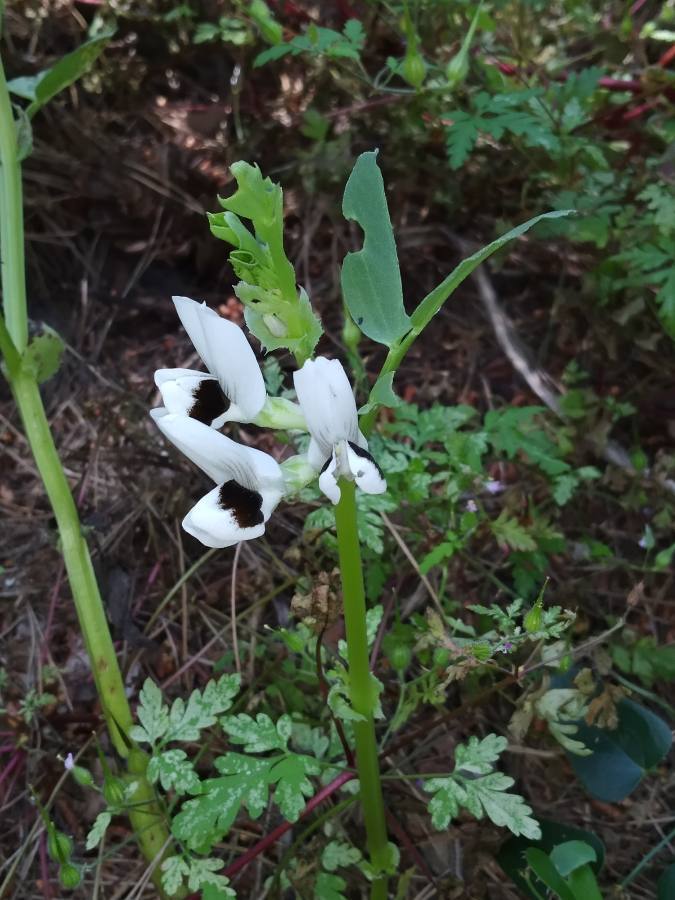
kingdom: Plantae
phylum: Tracheophyta
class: Magnoliopsida
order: Fabales
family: Fabaceae
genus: Vicia
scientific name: Vicia faba
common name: Broad bean
